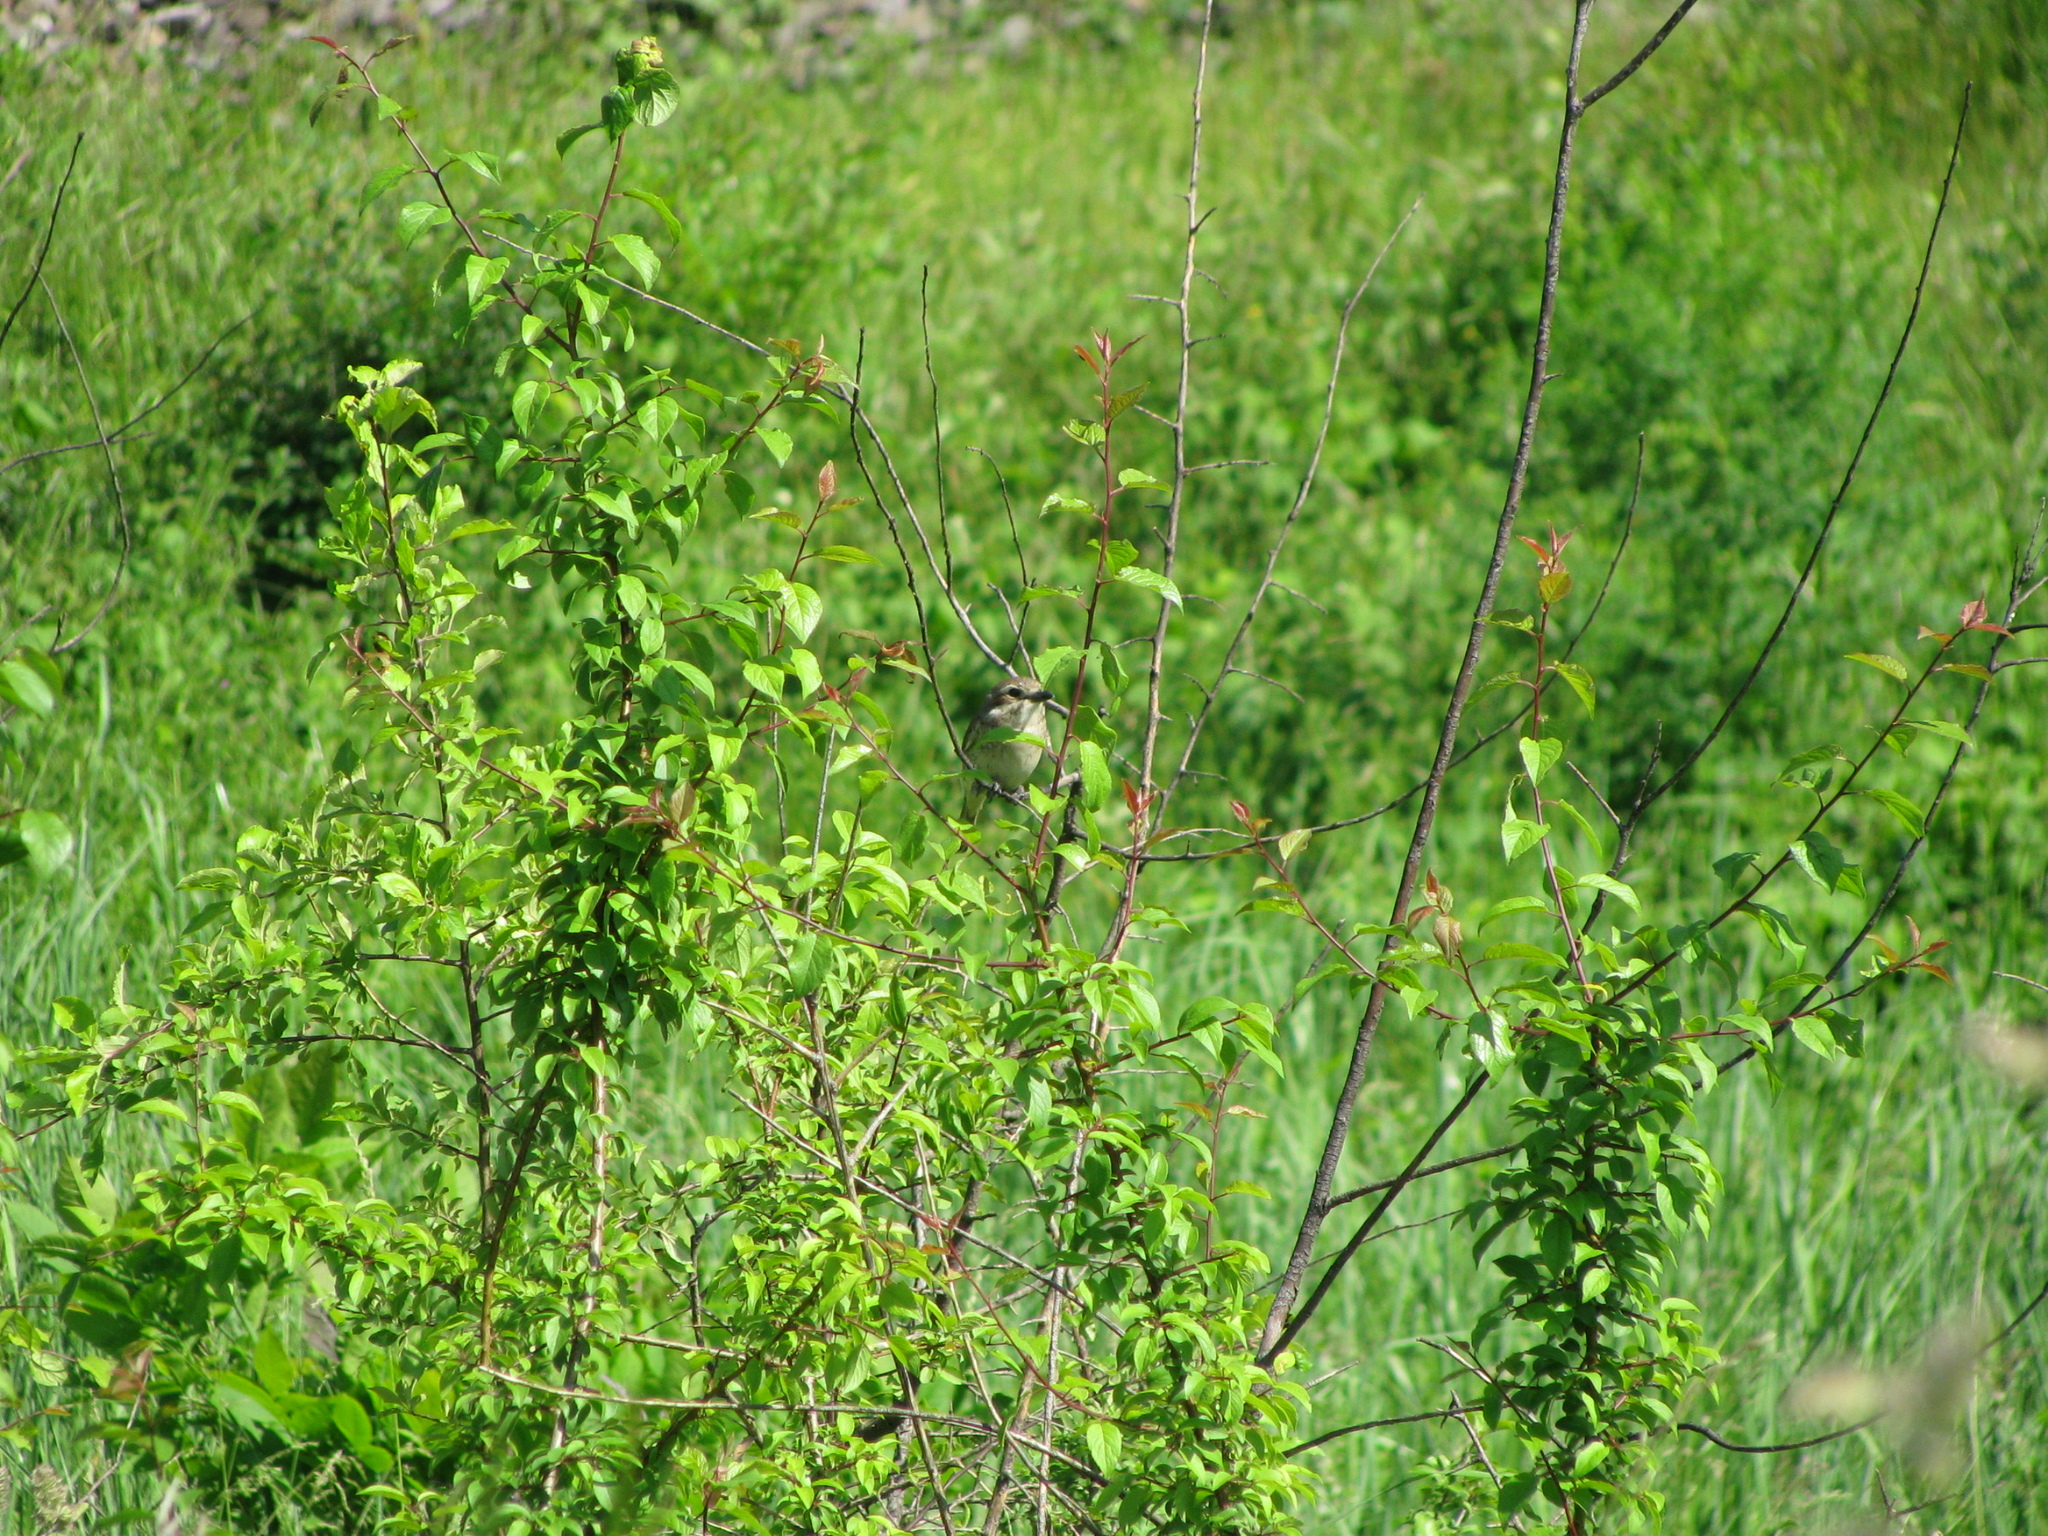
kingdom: Animalia
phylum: Chordata
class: Aves
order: Passeriformes
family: Laniidae
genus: Lanius
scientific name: Lanius collurio
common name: Red-backed shrike
